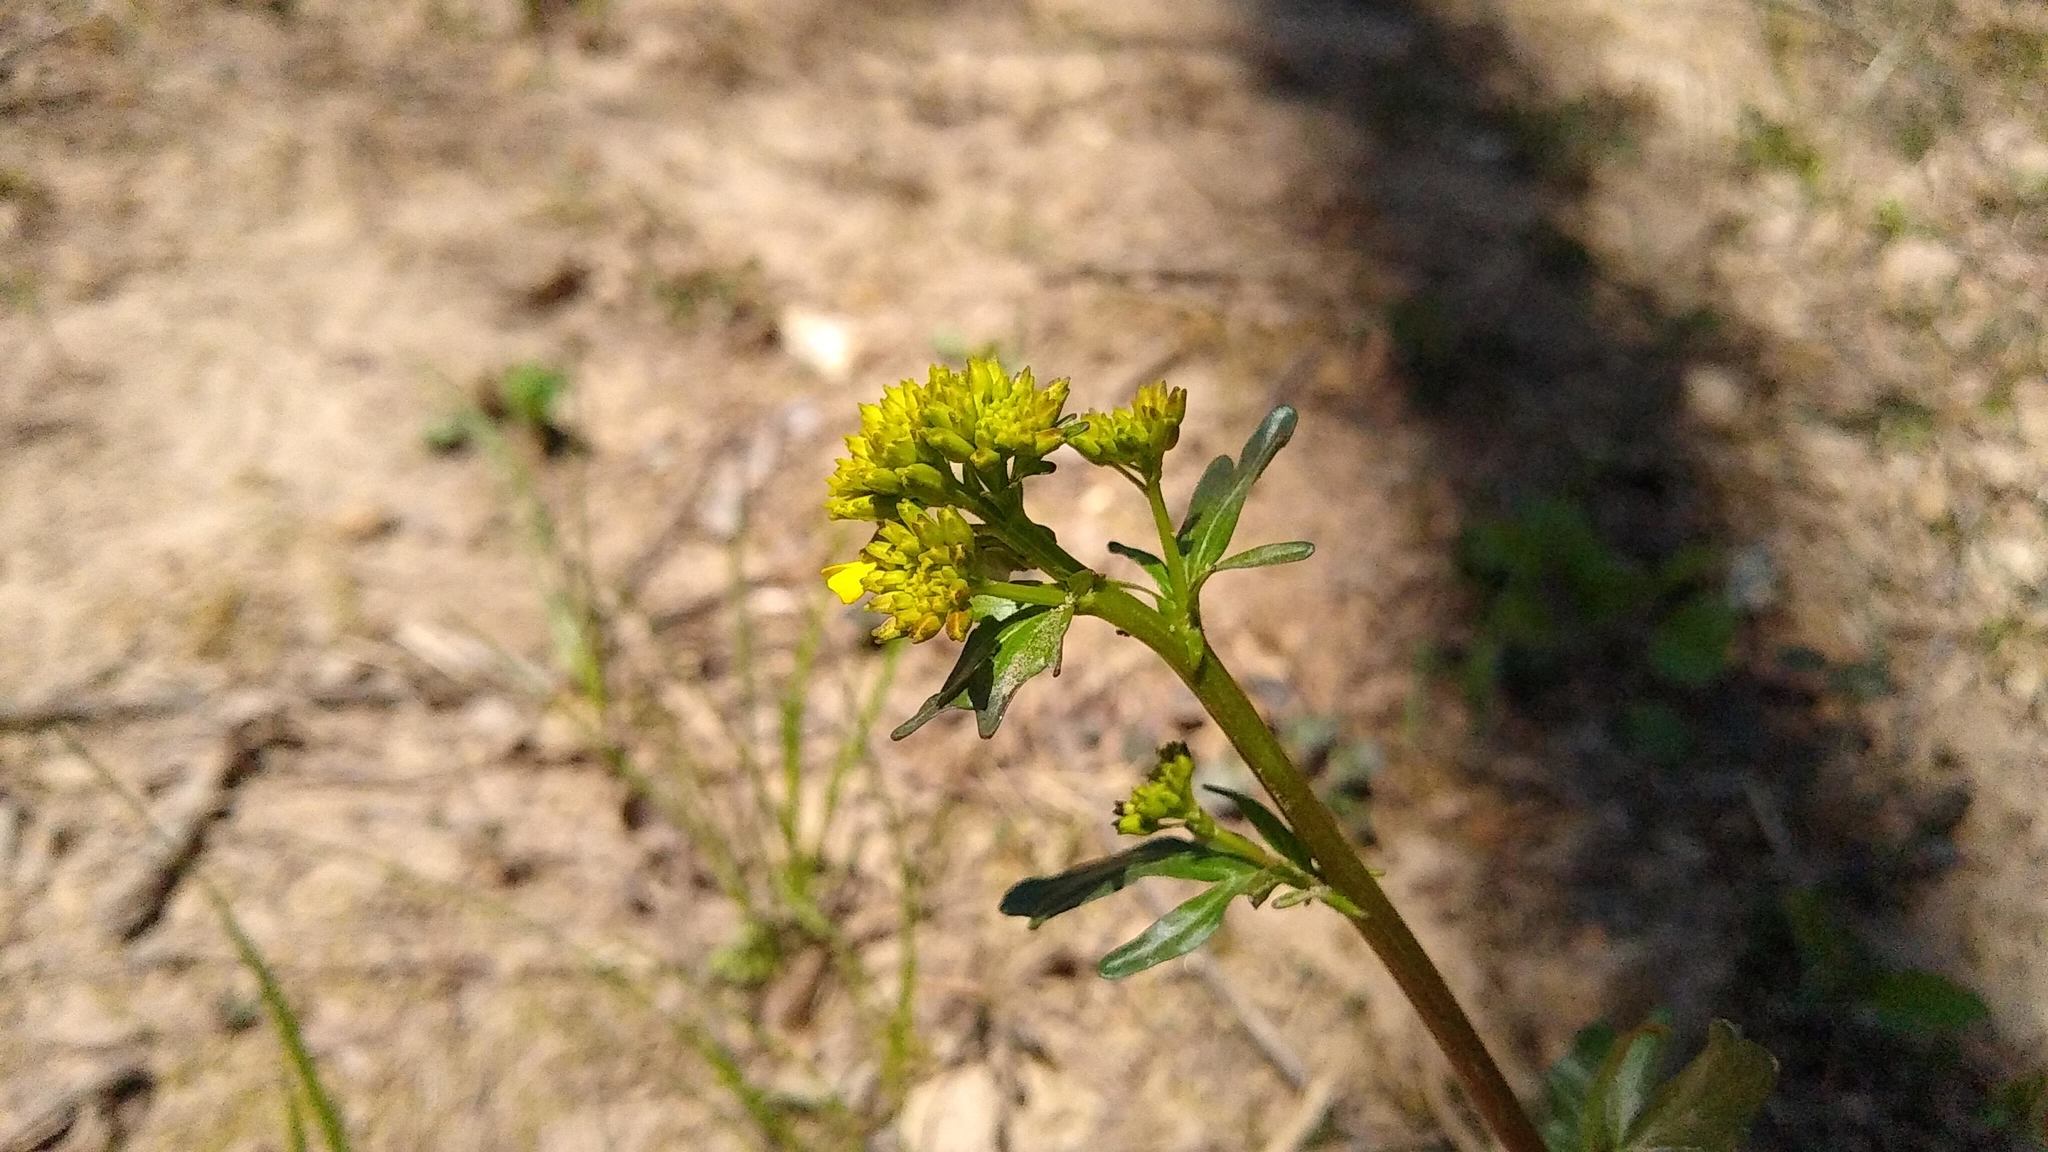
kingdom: Plantae
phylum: Tracheophyta
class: Magnoliopsida
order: Brassicales
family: Brassicaceae
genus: Barbarea
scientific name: Barbarea vulgaris
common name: Cressy-greens
